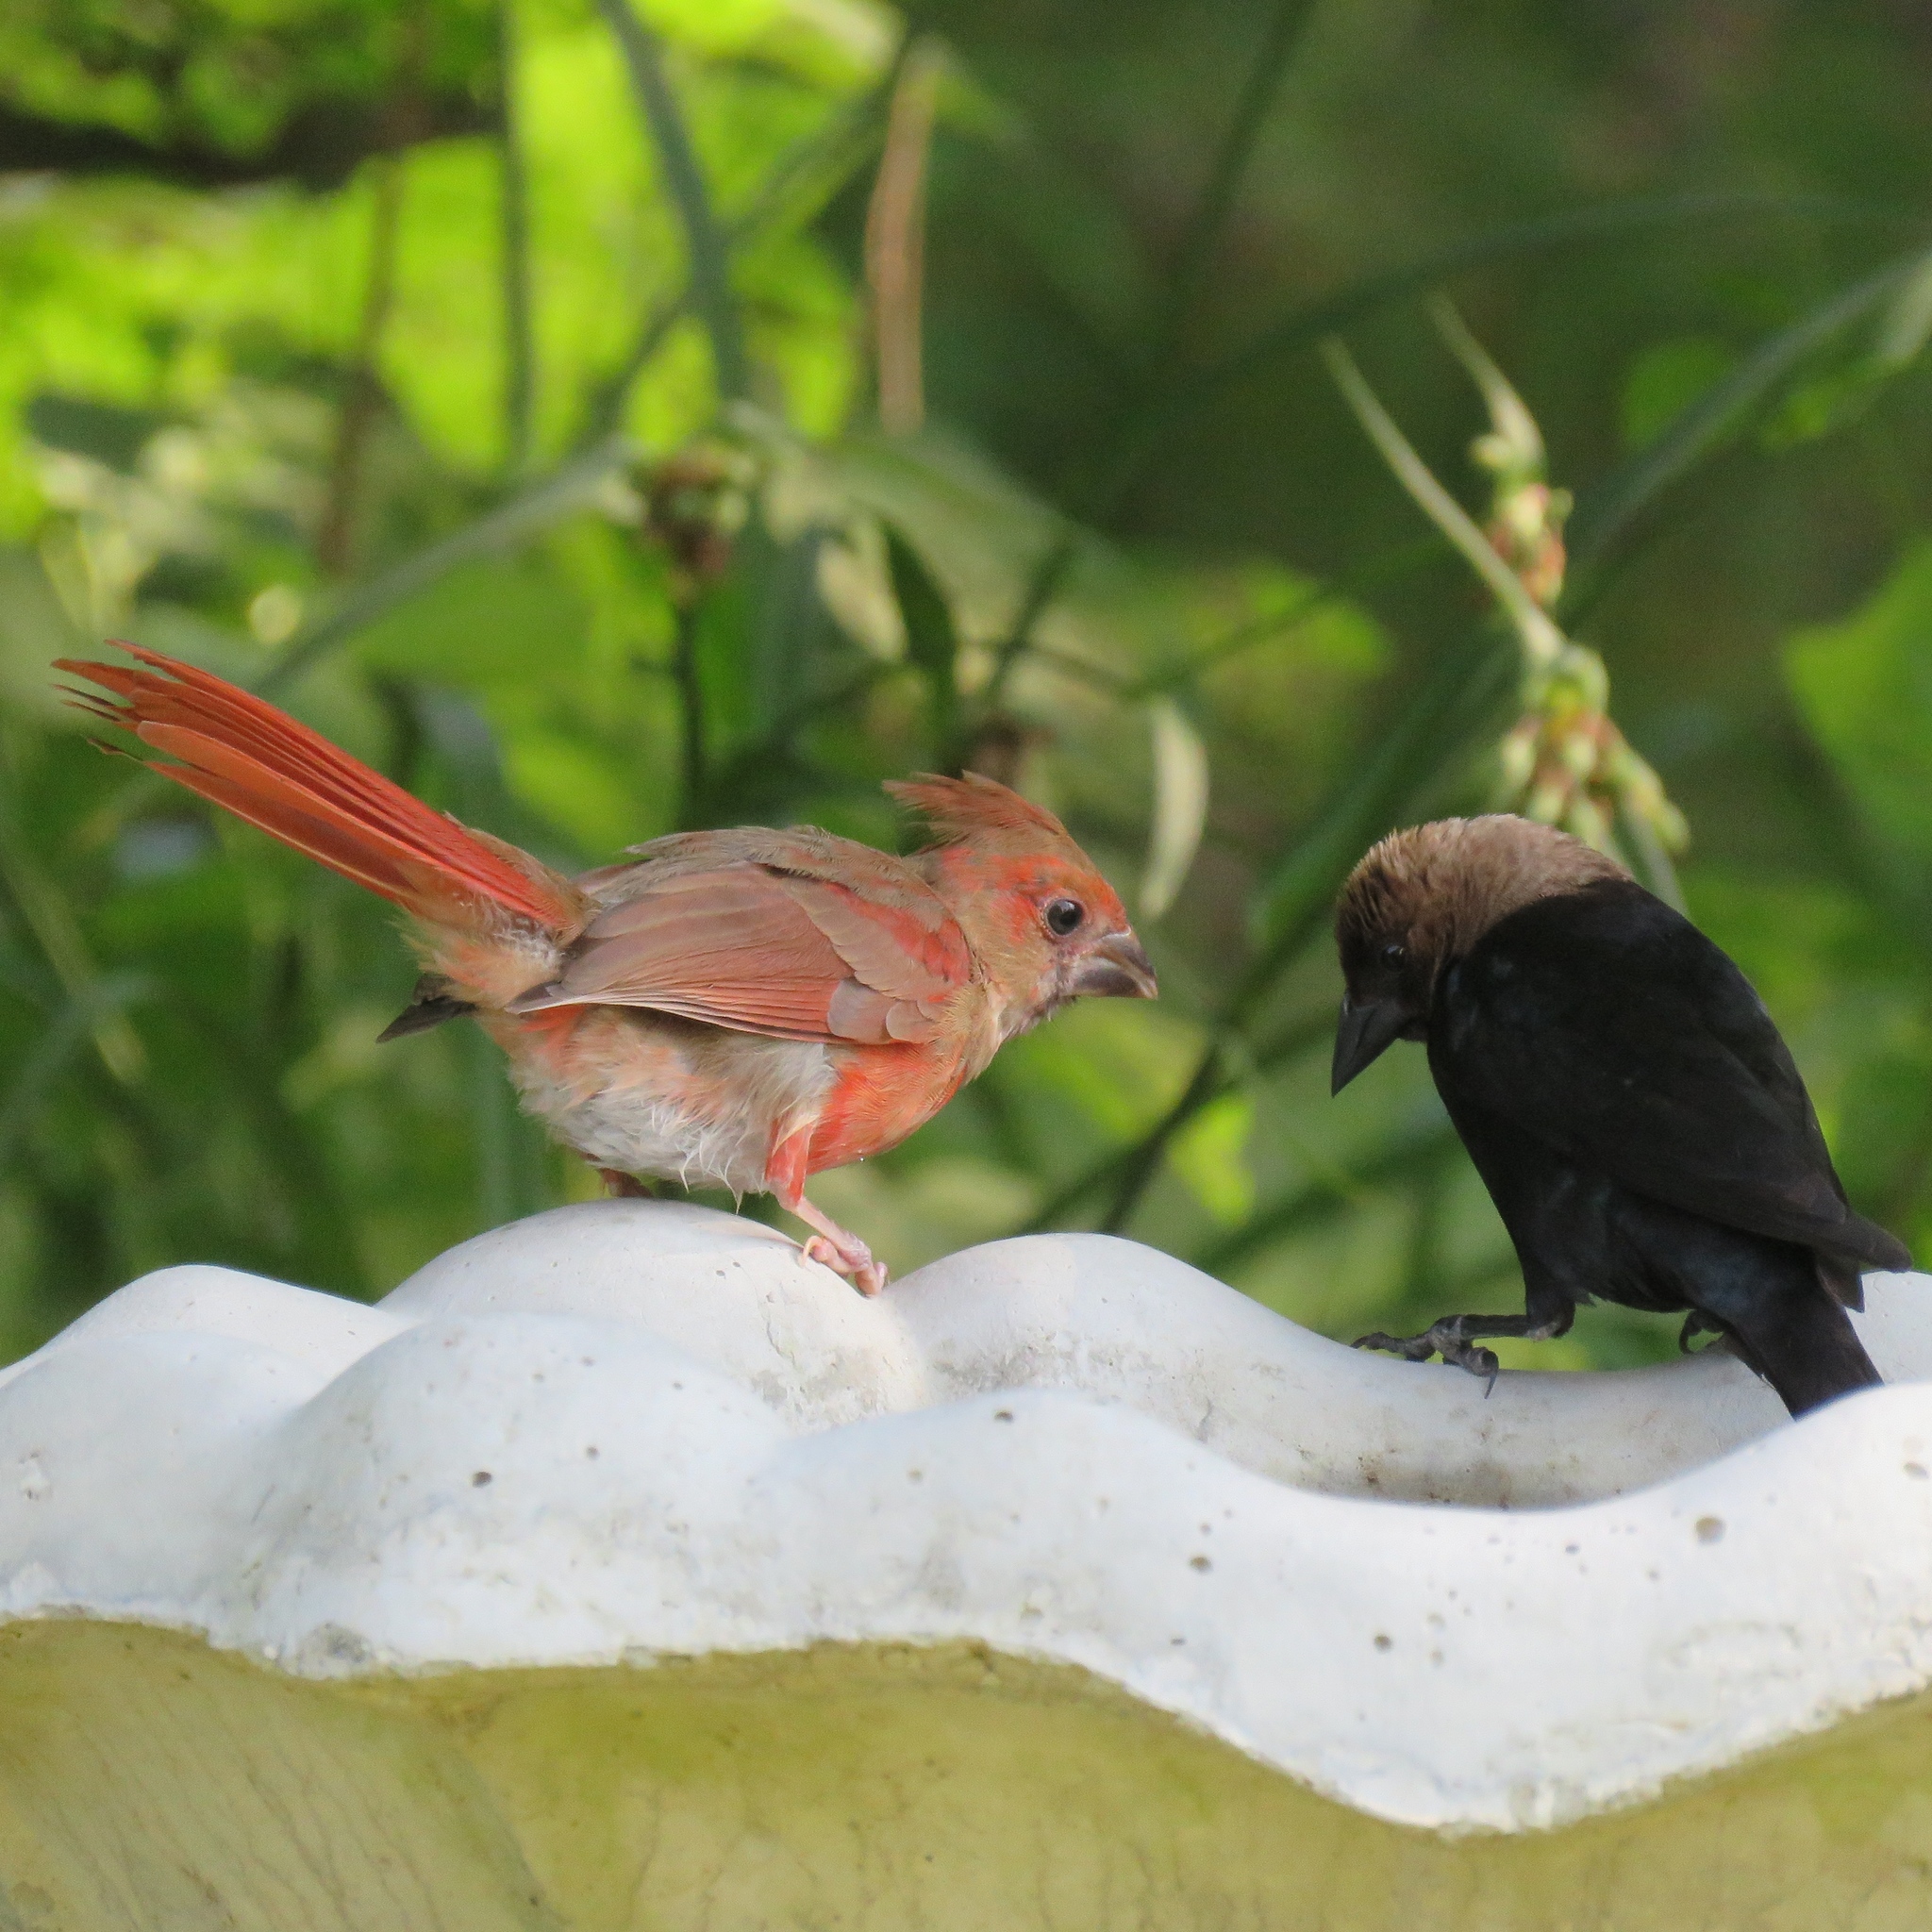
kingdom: Animalia
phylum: Chordata
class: Aves
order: Passeriformes
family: Cardinalidae
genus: Cardinalis
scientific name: Cardinalis cardinalis
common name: Northern cardinal
